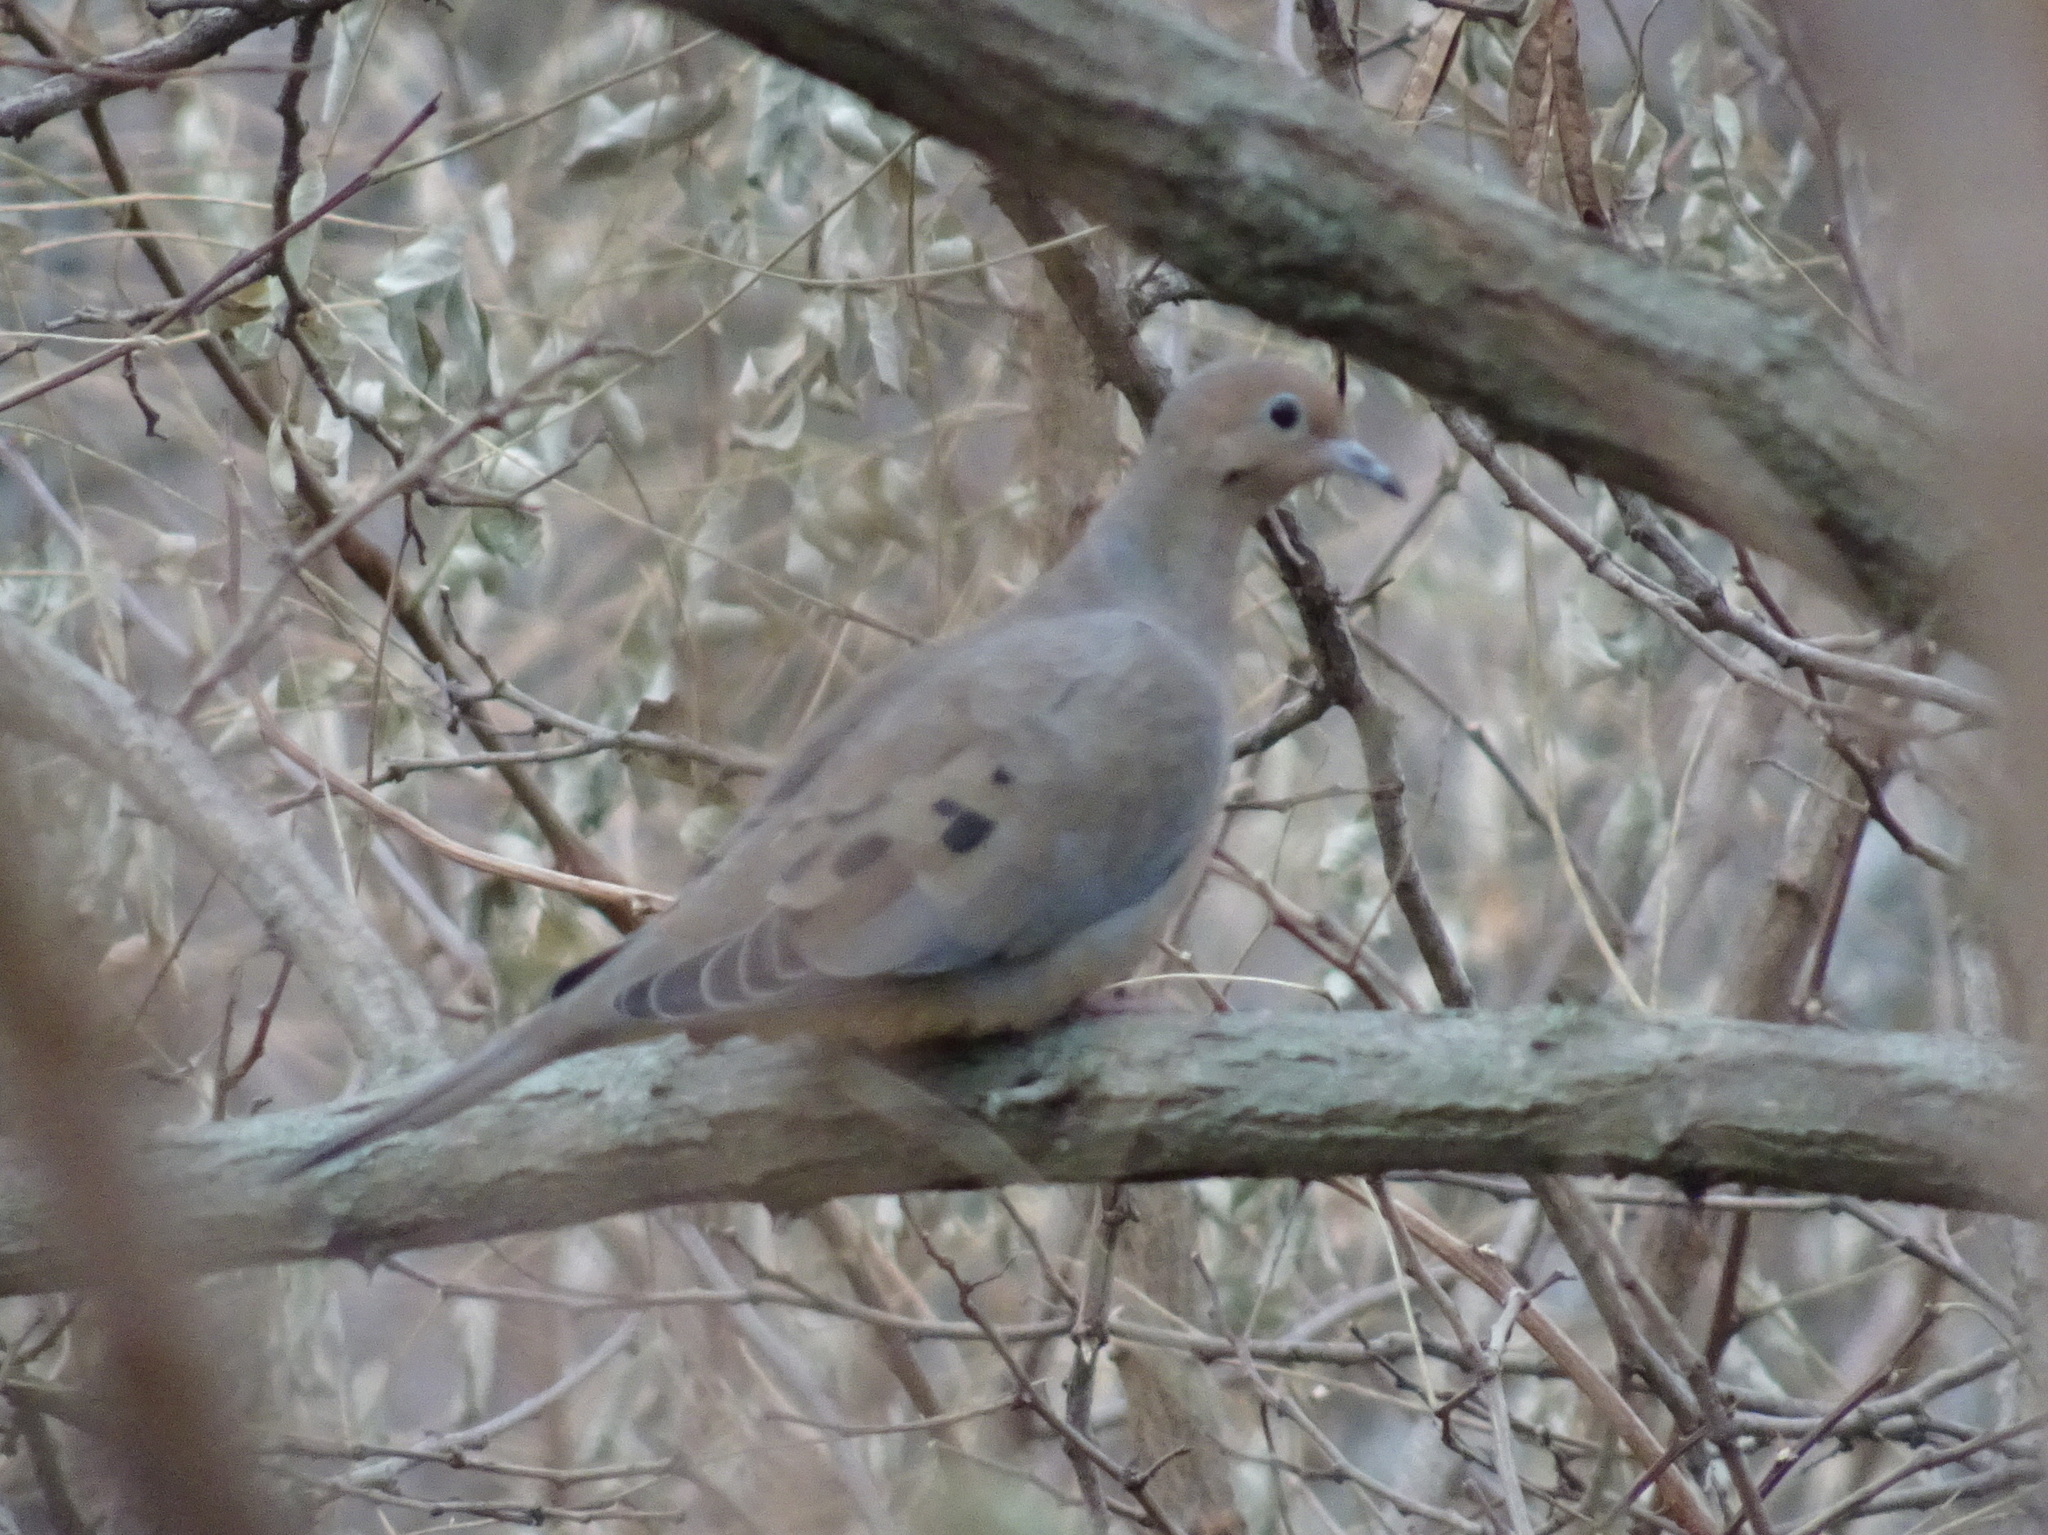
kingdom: Animalia
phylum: Chordata
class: Aves
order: Columbiformes
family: Columbidae
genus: Zenaida
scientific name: Zenaida macroura
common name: Mourning dove
